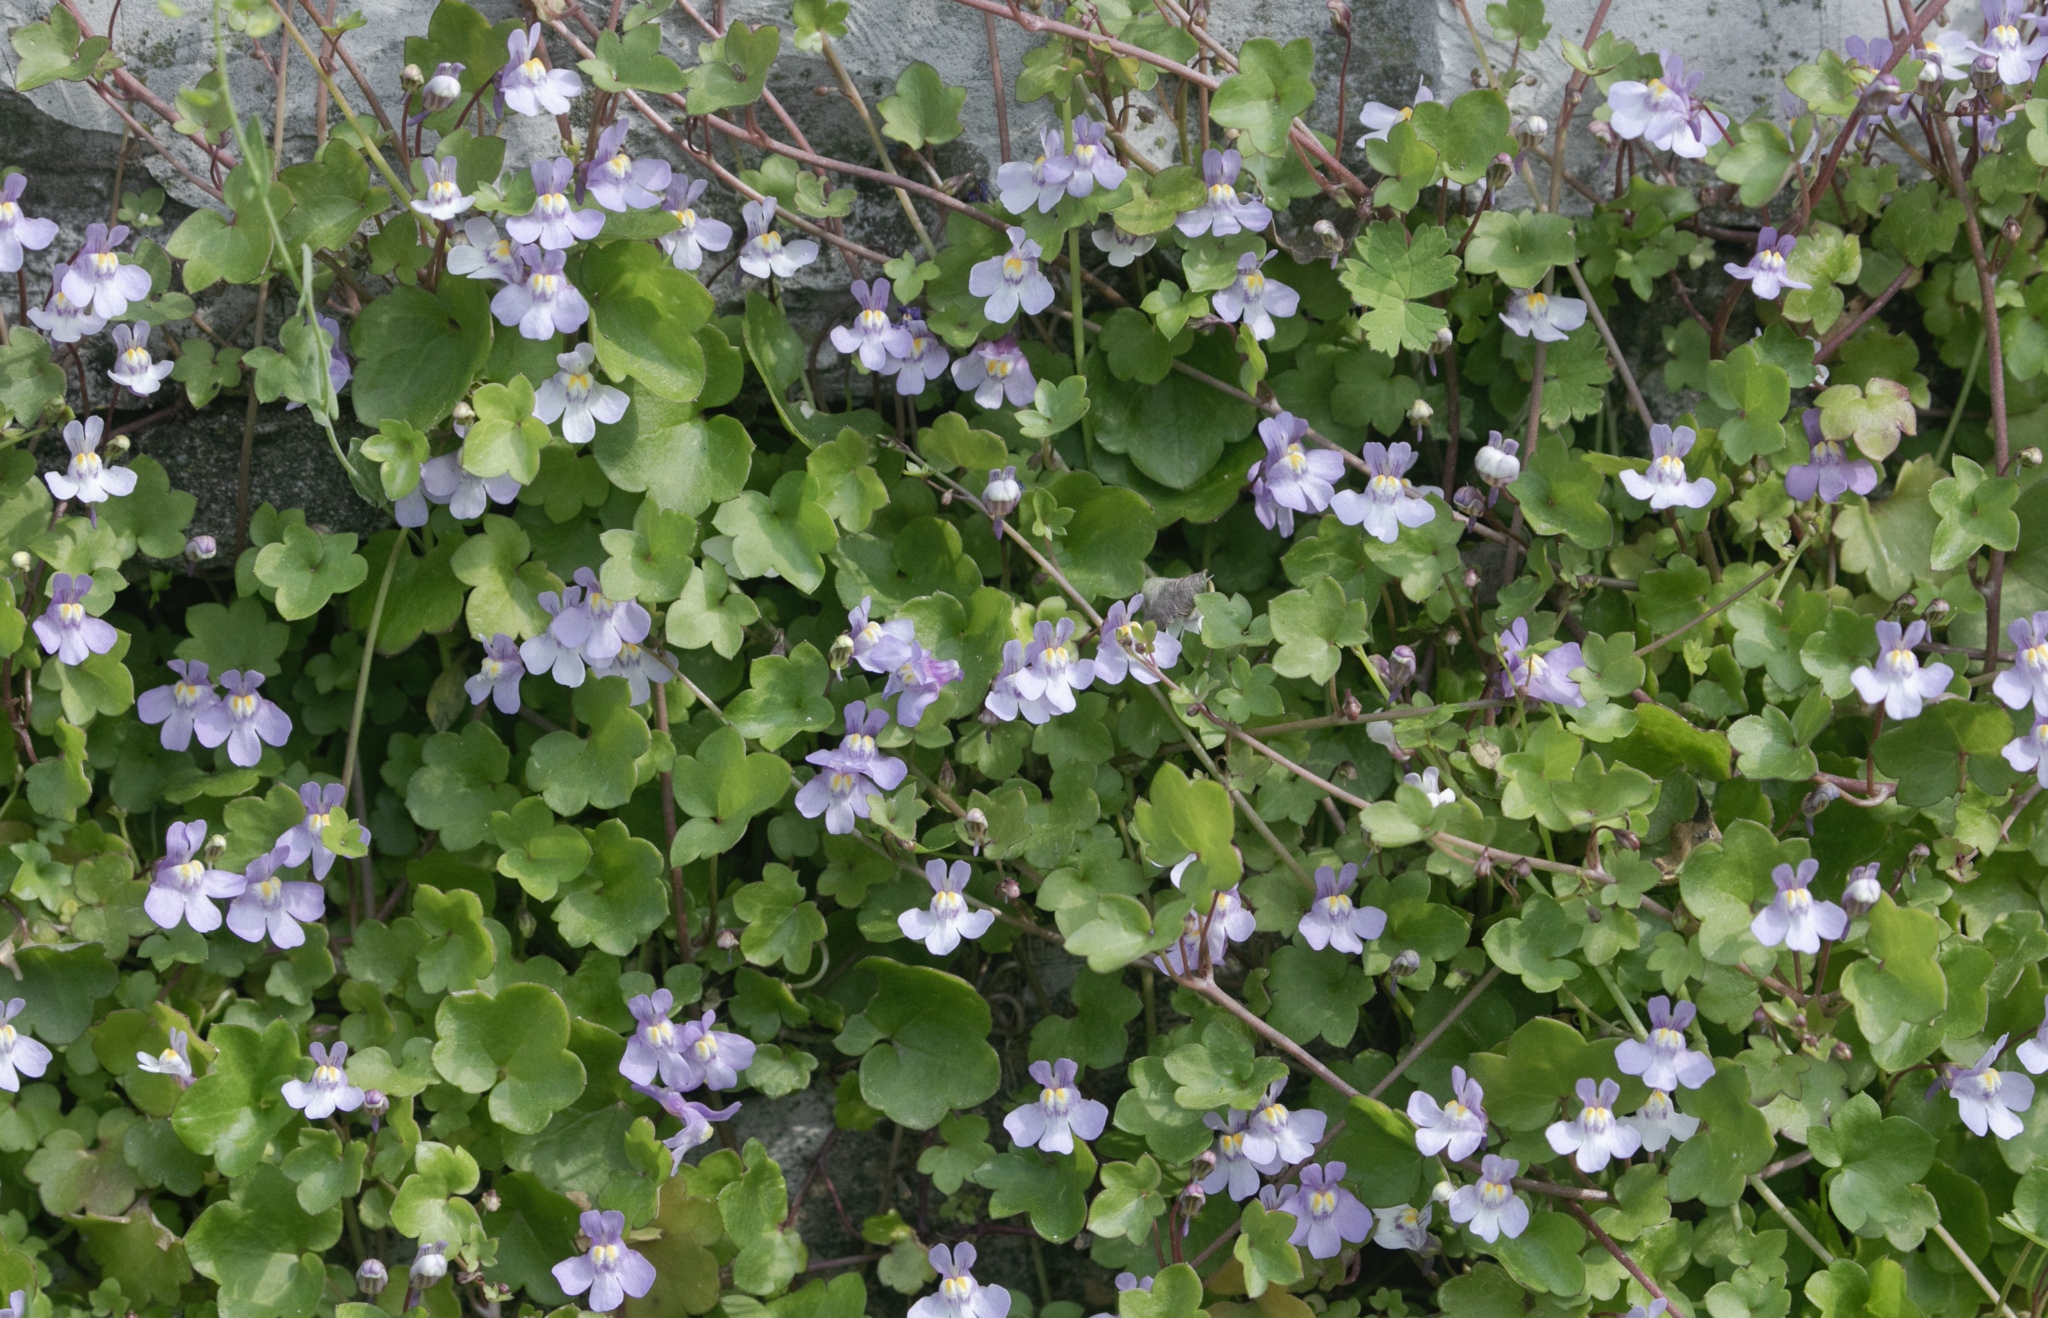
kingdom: Plantae
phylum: Tracheophyta
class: Magnoliopsida
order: Lamiales
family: Plantaginaceae
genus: Cymbalaria
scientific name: Cymbalaria muralis
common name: Ivy-leaved toadflax
